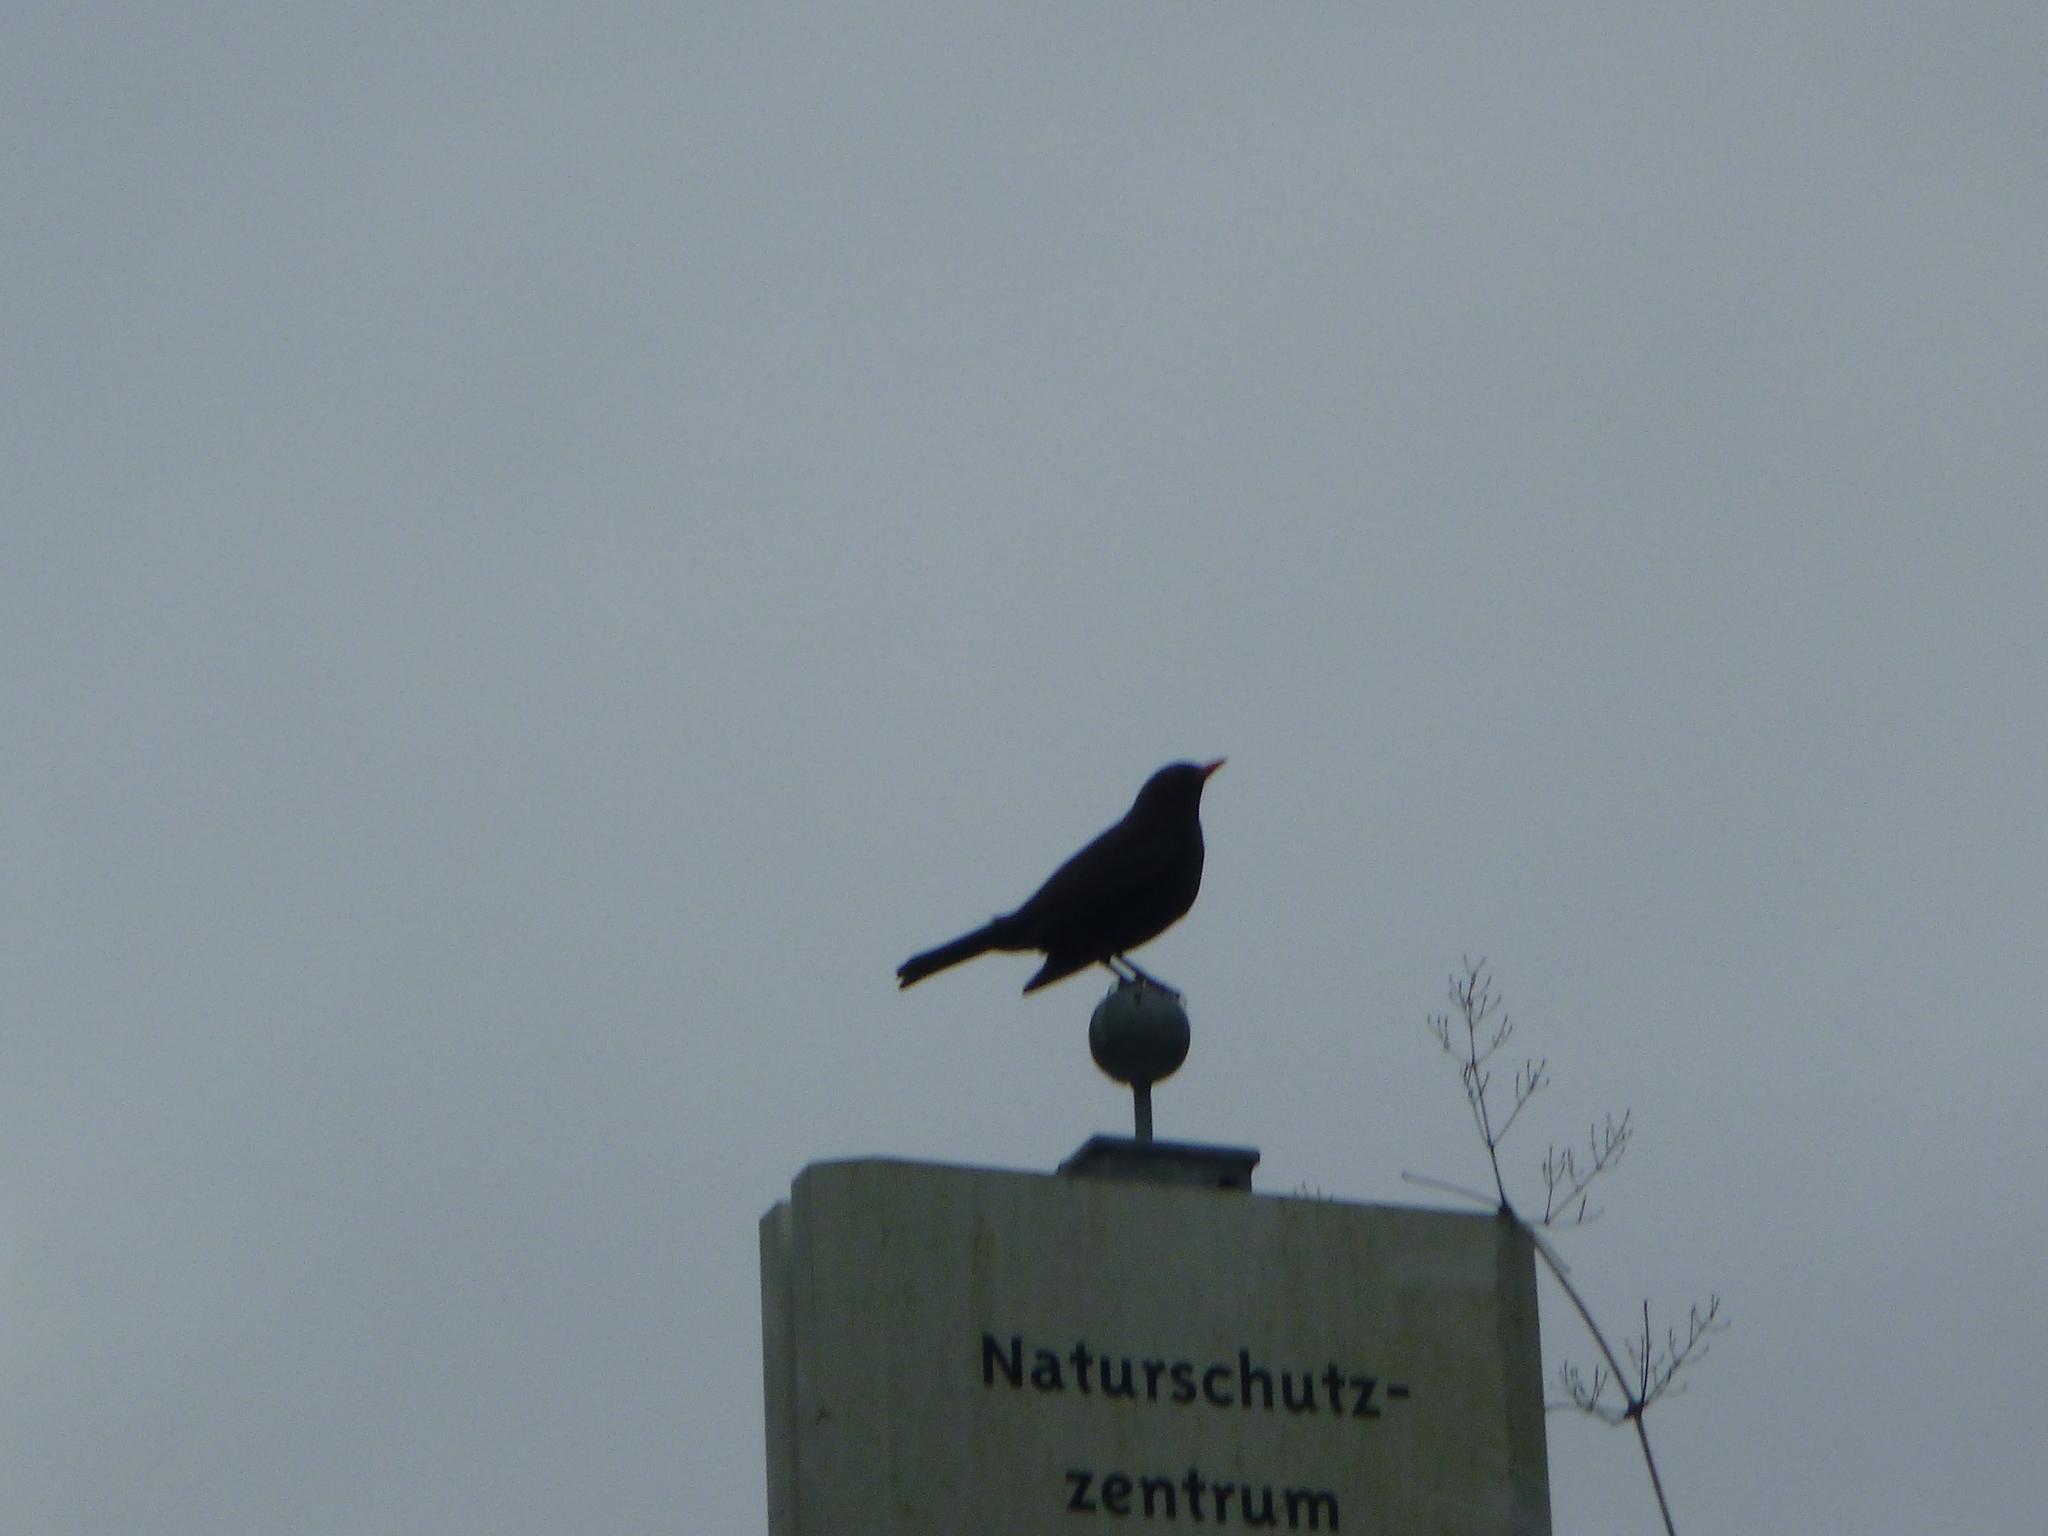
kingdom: Animalia
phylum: Chordata
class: Aves
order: Passeriformes
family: Turdidae
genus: Turdus
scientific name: Turdus merula
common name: Common blackbird
